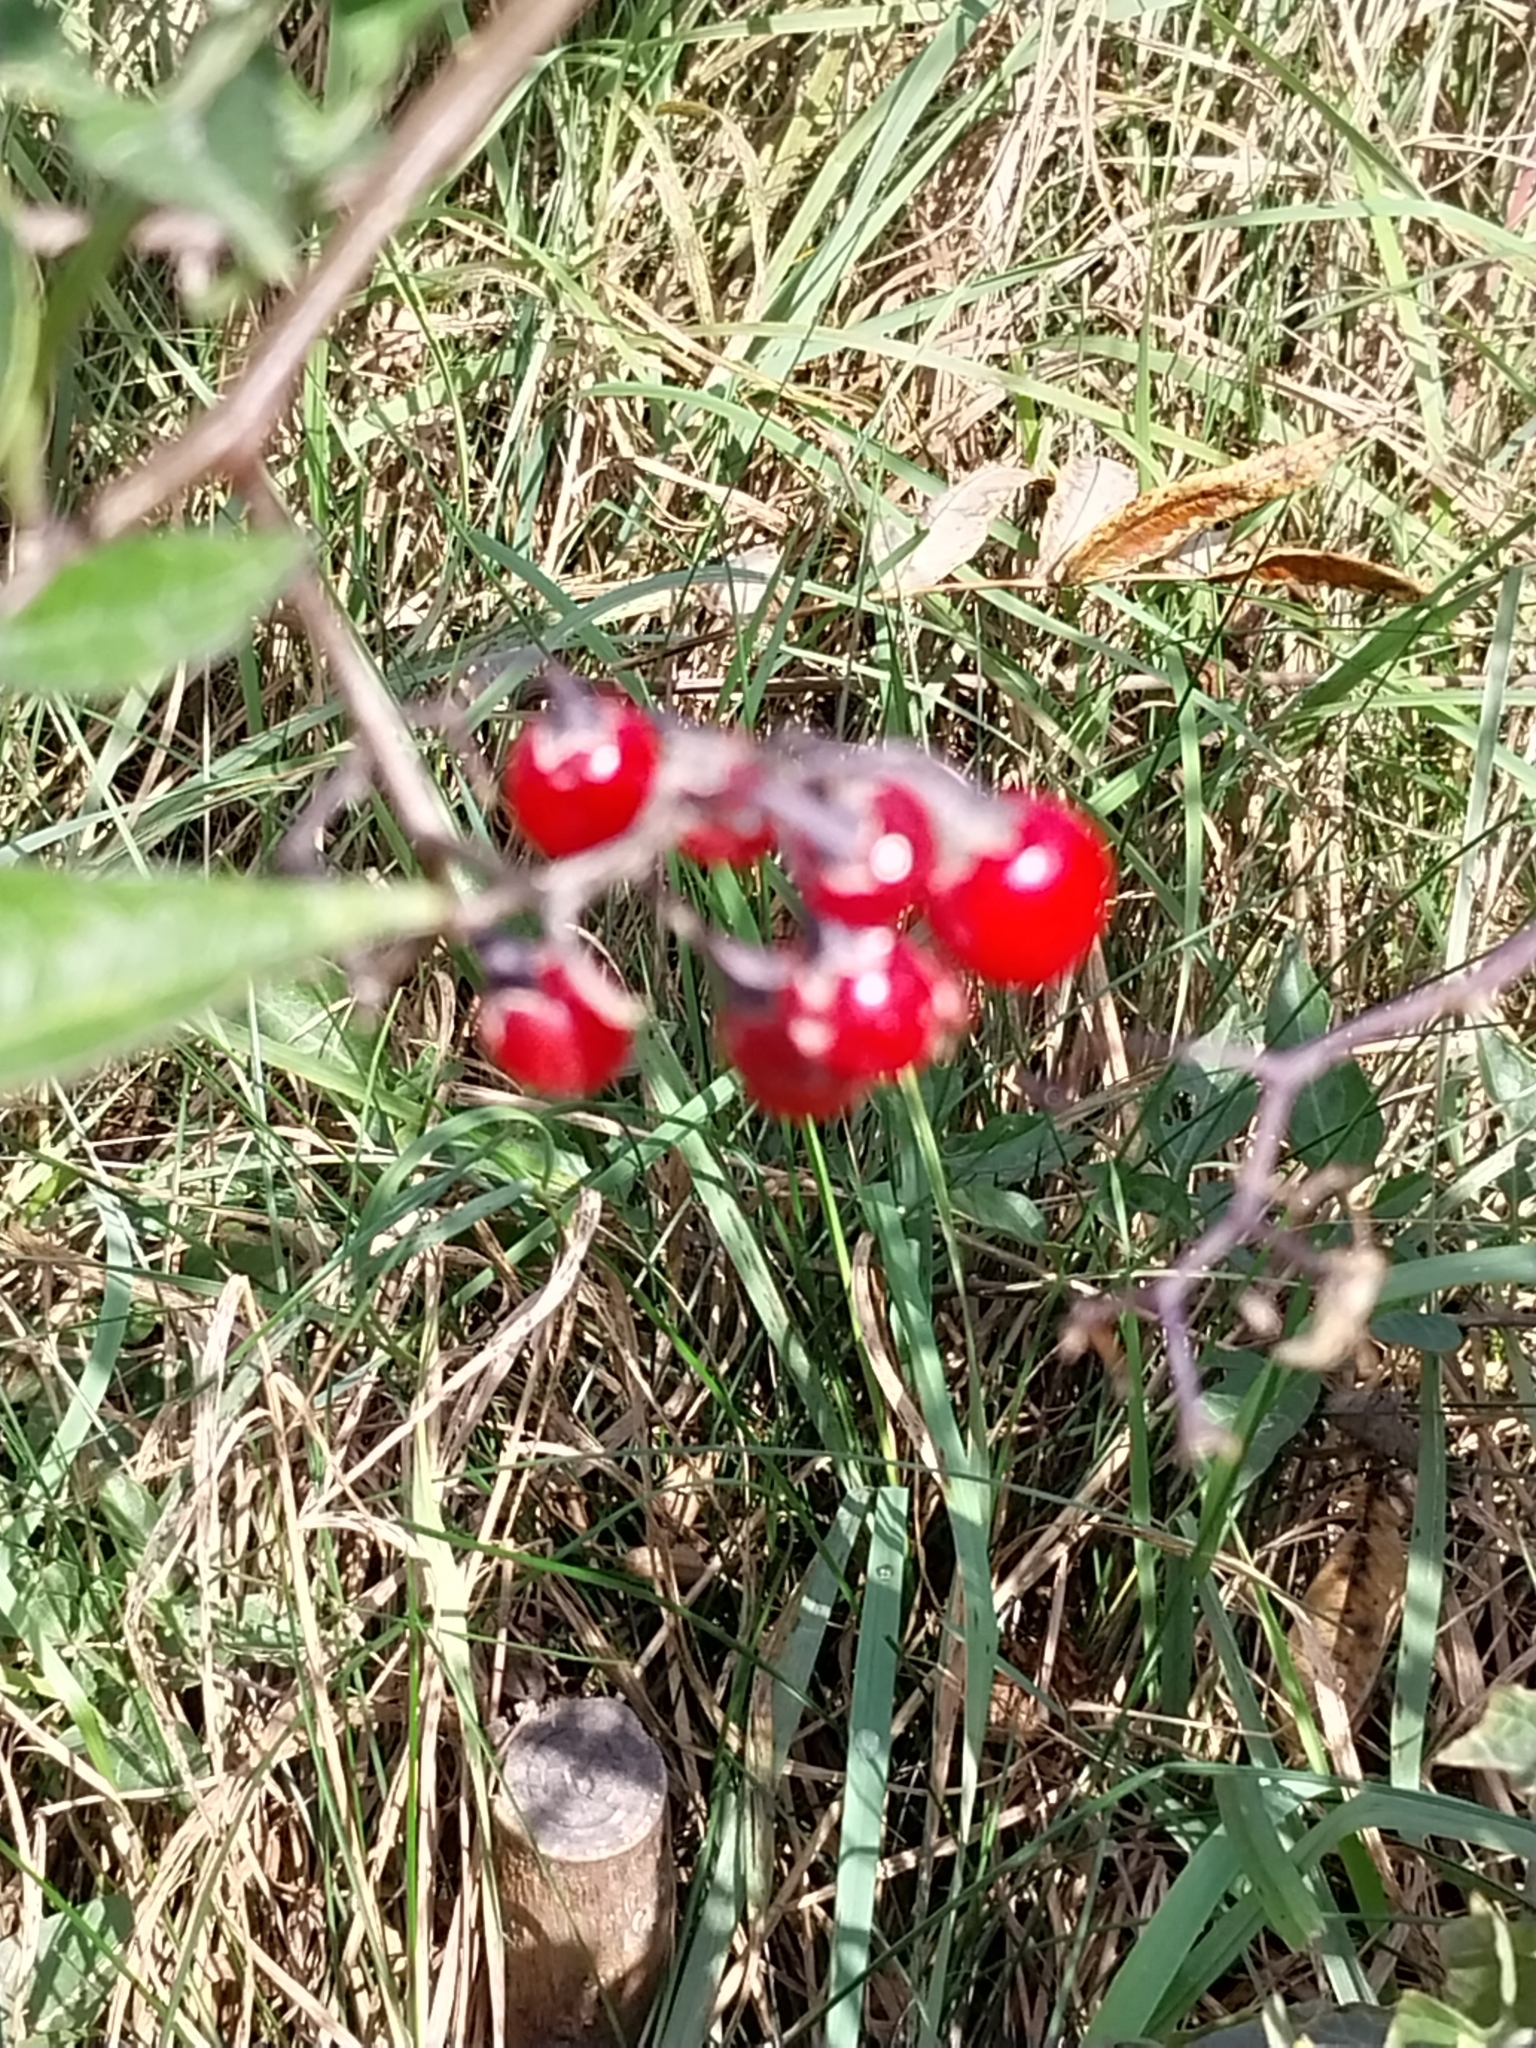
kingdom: Plantae
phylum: Tracheophyta
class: Magnoliopsida
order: Solanales
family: Solanaceae
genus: Solanum
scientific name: Solanum dulcamara
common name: Climbing nightshade
